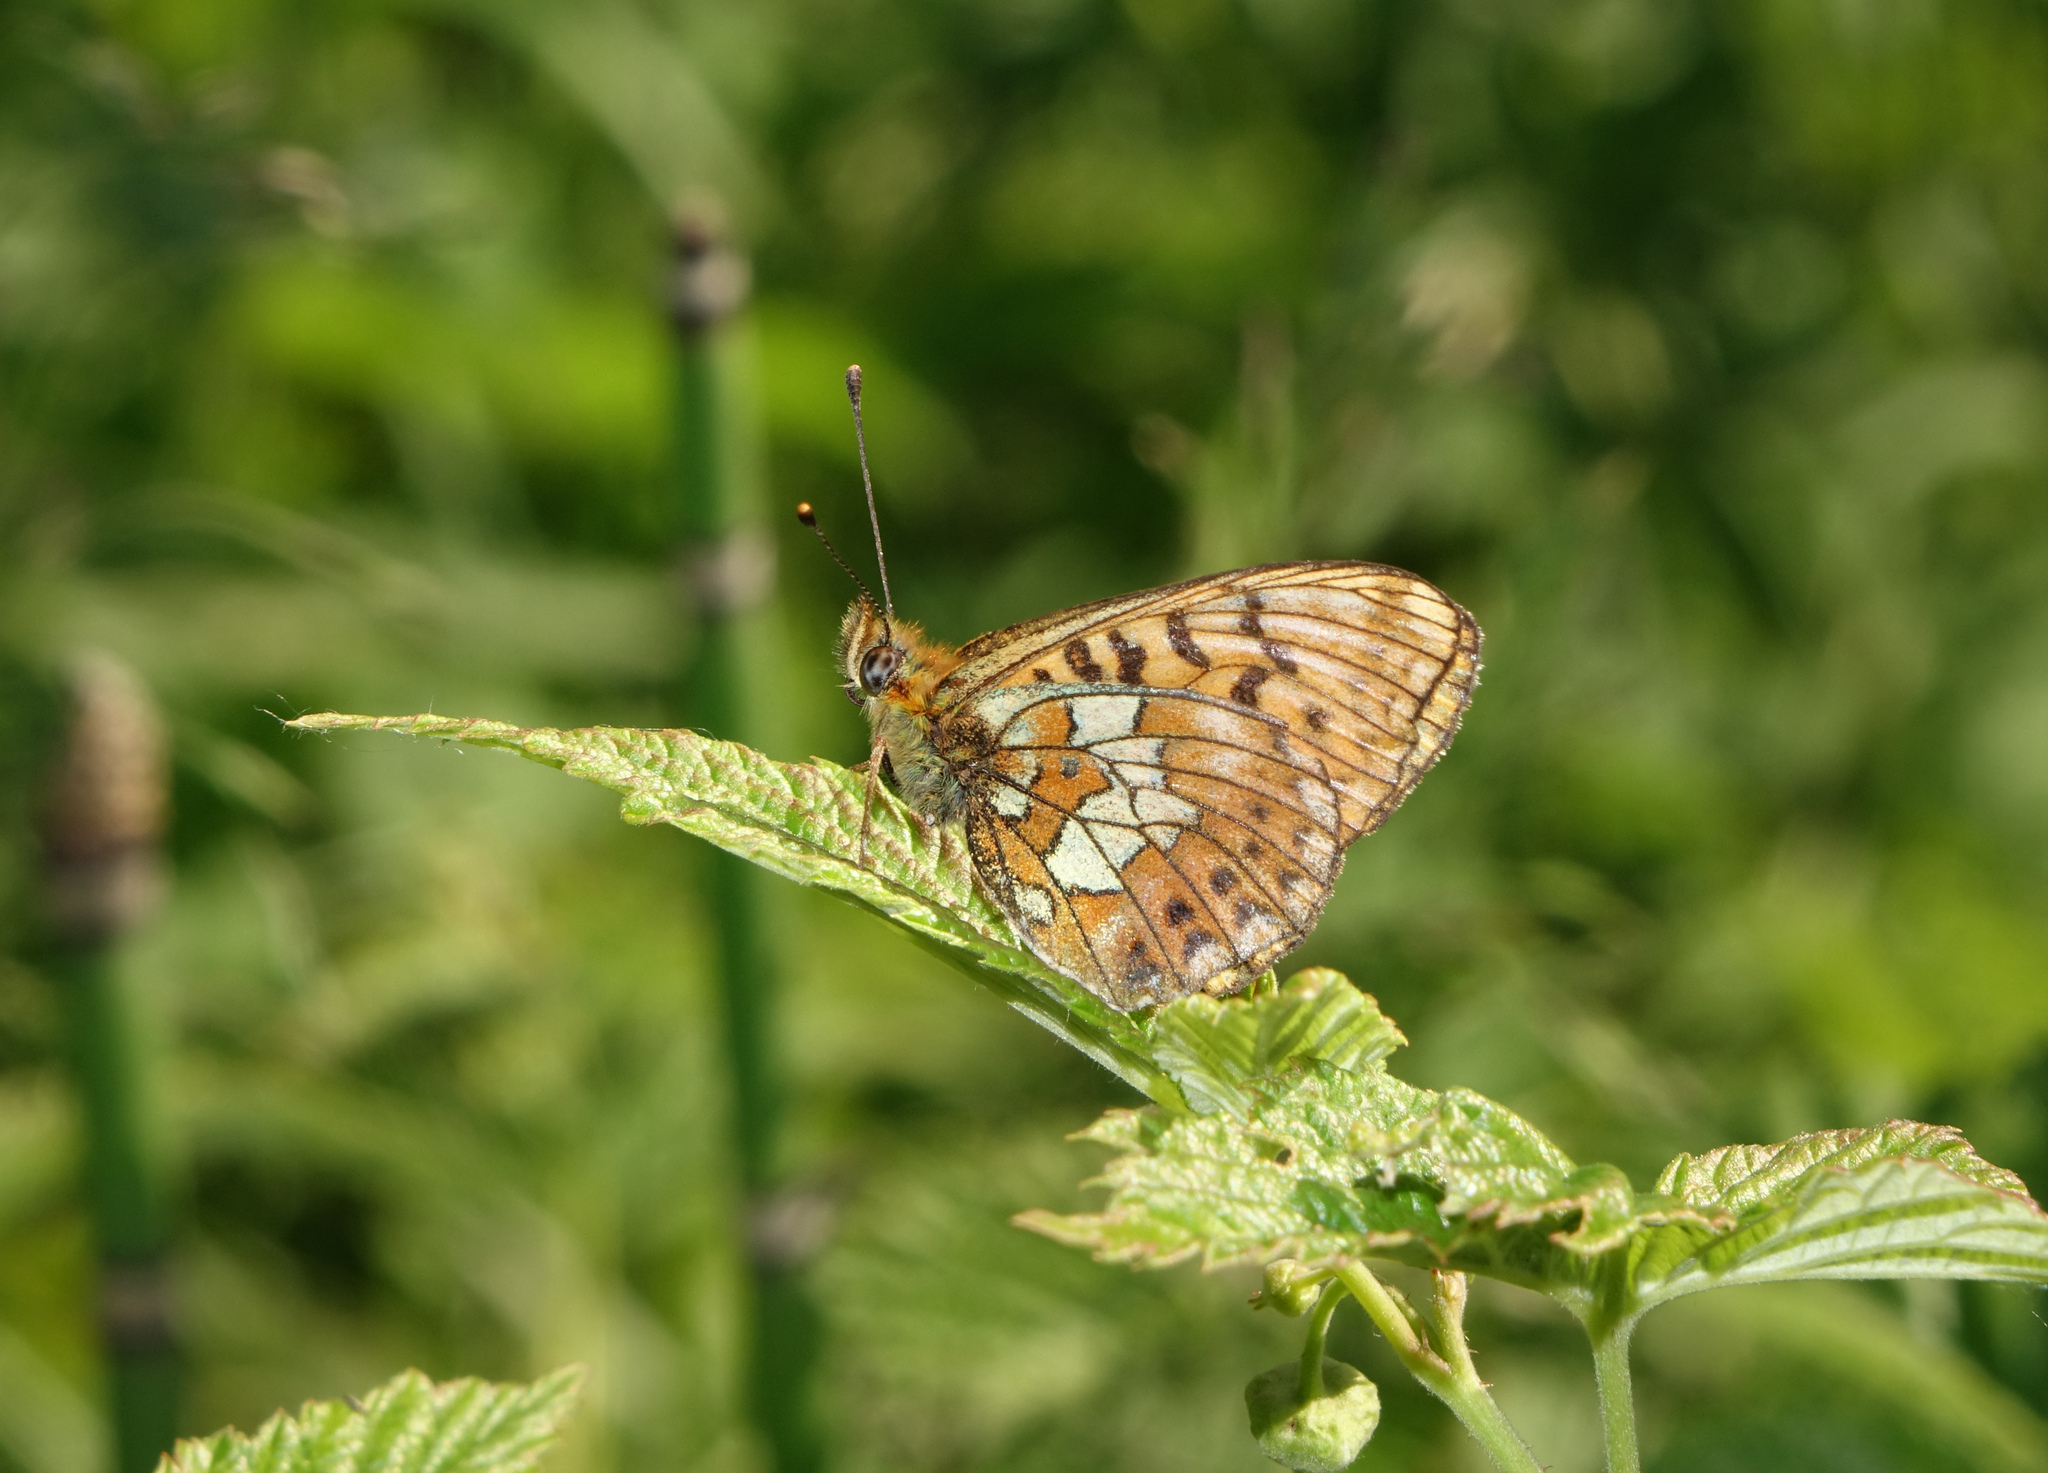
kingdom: Animalia
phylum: Arthropoda
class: Insecta
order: Lepidoptera
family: Nymphalidae
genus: Clossiana
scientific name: Clossiana oscarus
